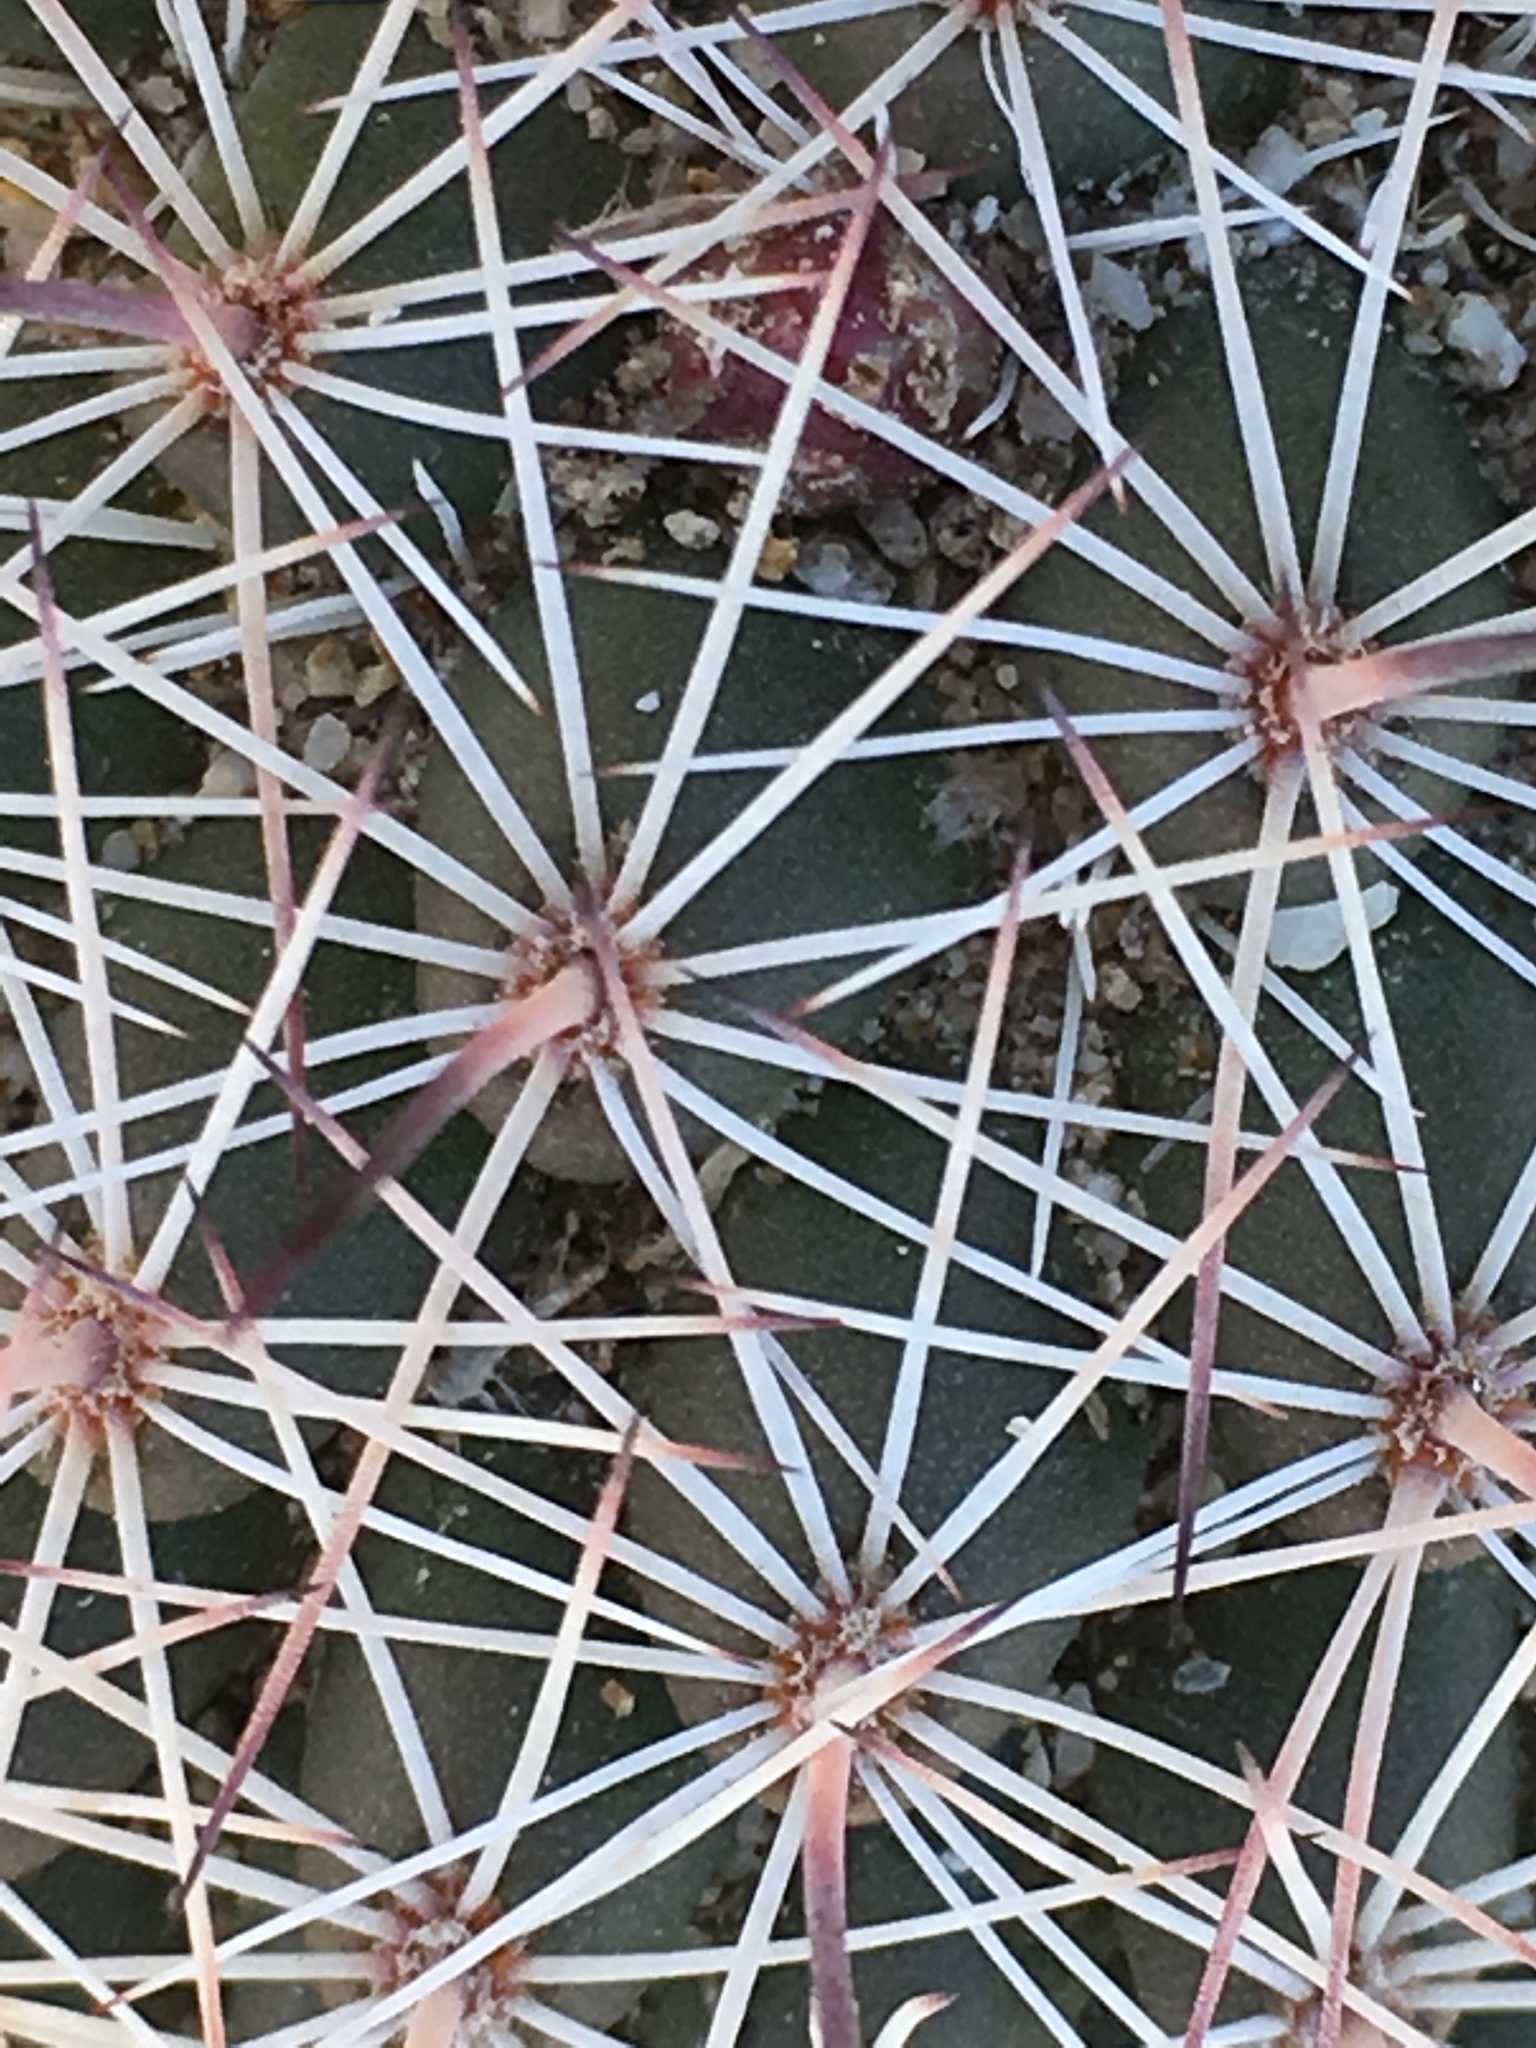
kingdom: Plantae
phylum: Tracheophyta
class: Magnoliopsida
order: Caryophyllales
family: Cactaceae
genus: Cochemiea
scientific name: Cochemiea dioica
